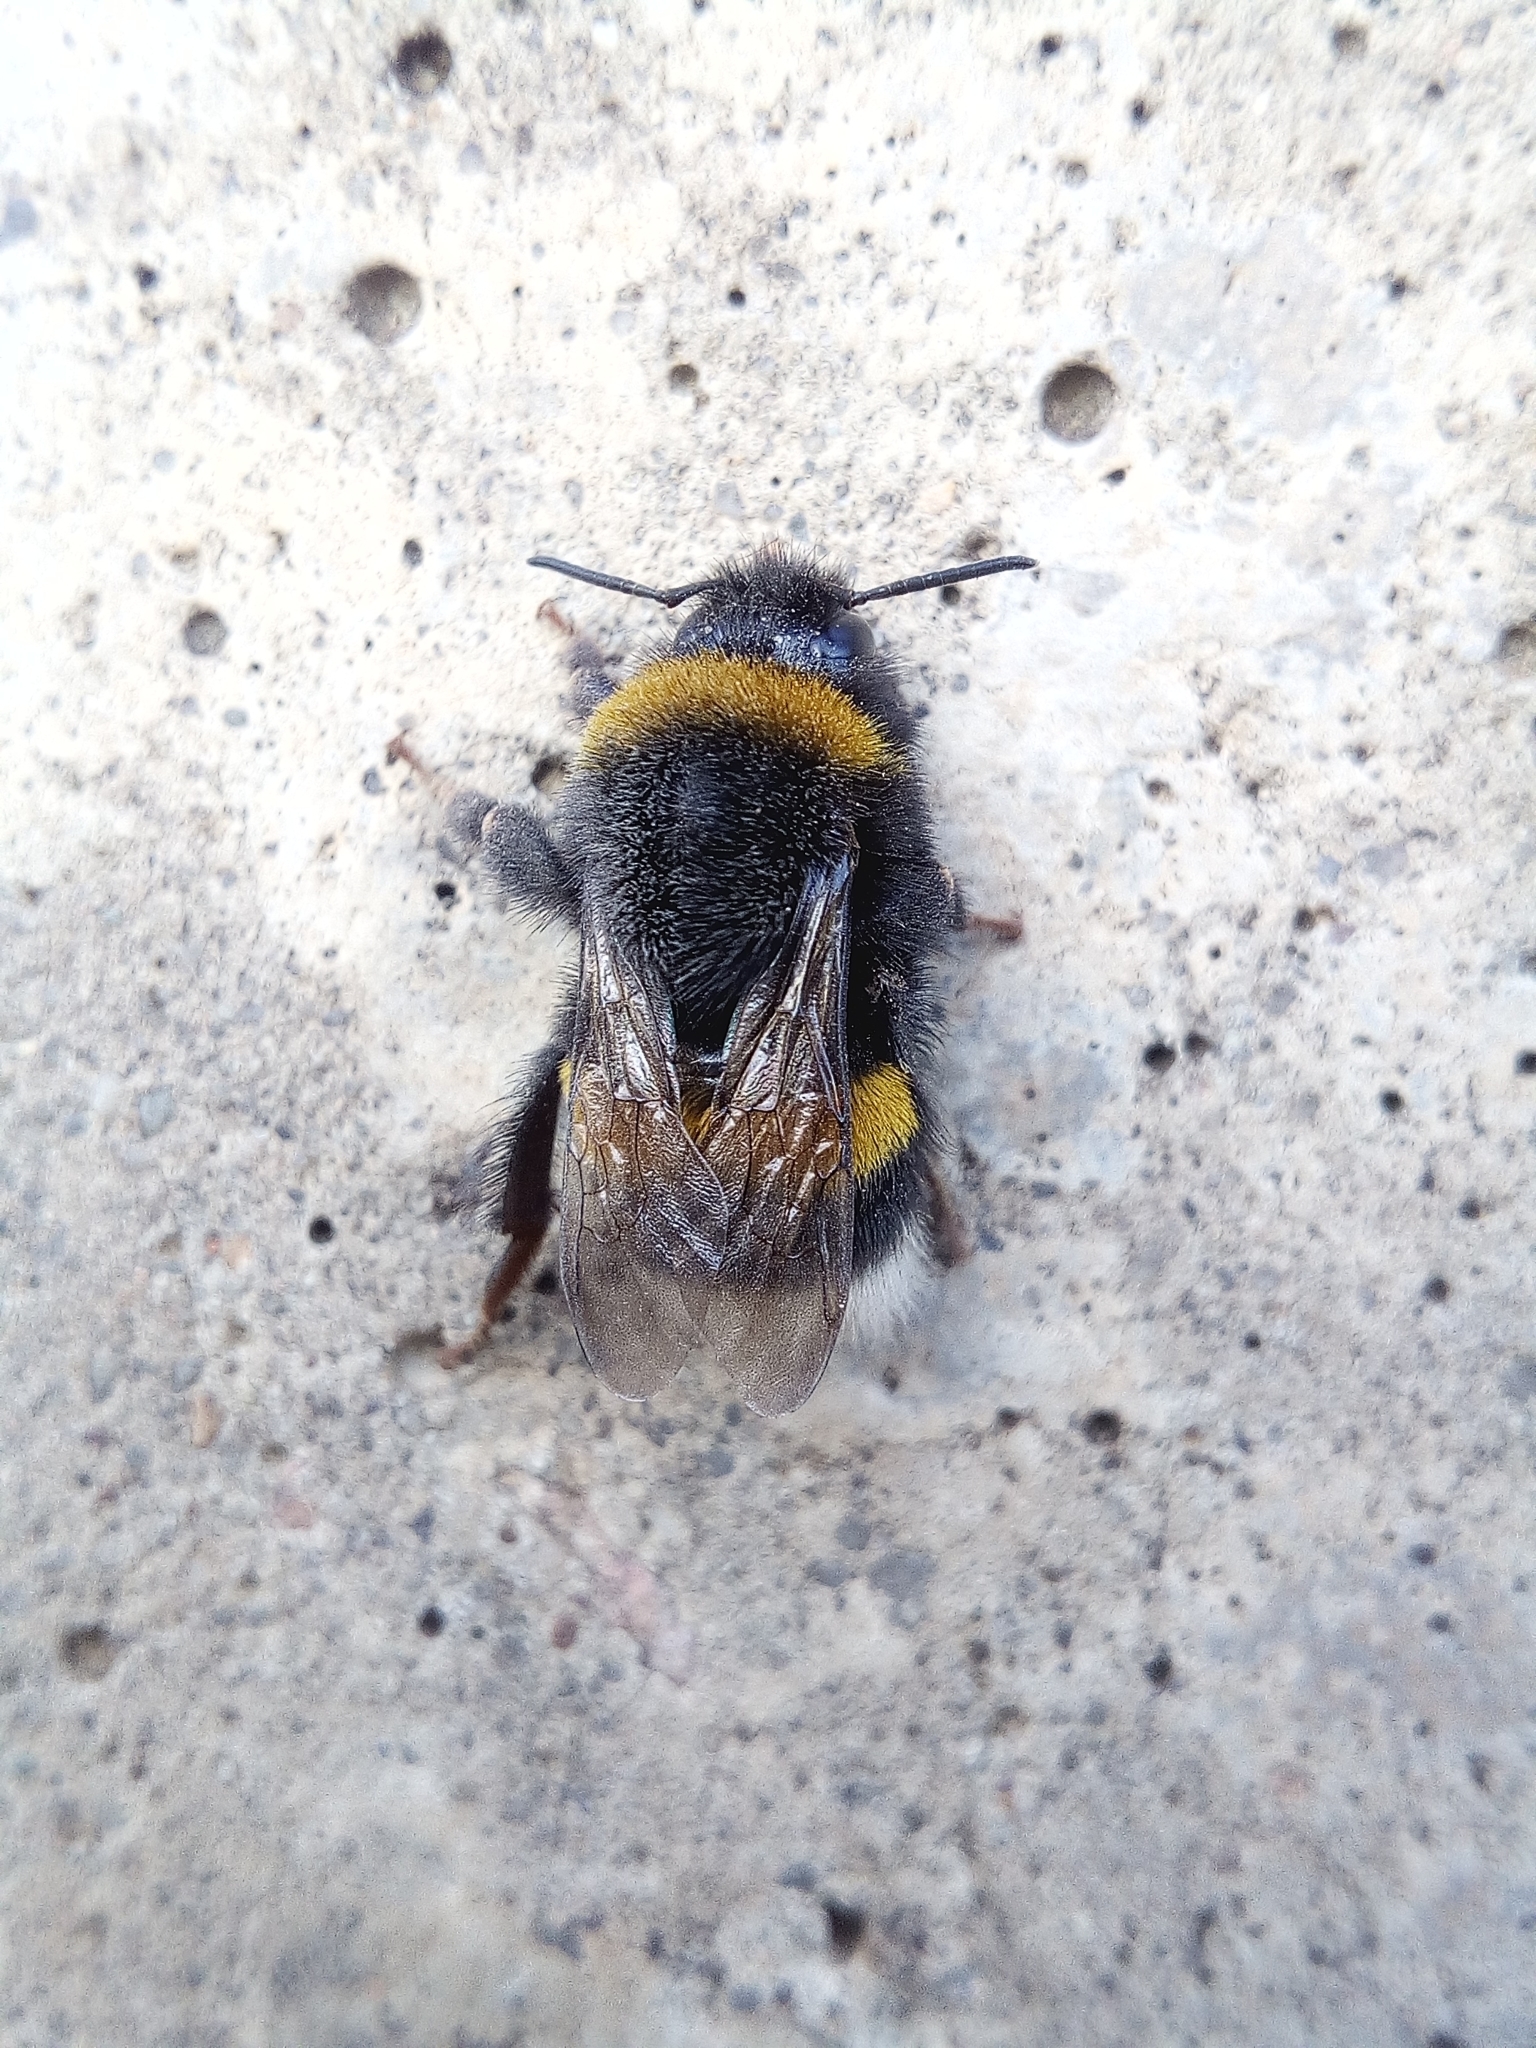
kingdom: Animalia
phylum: Arthropoda
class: Insecta
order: Hymenoptera
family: Apidae
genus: Bombus
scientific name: Bombus
